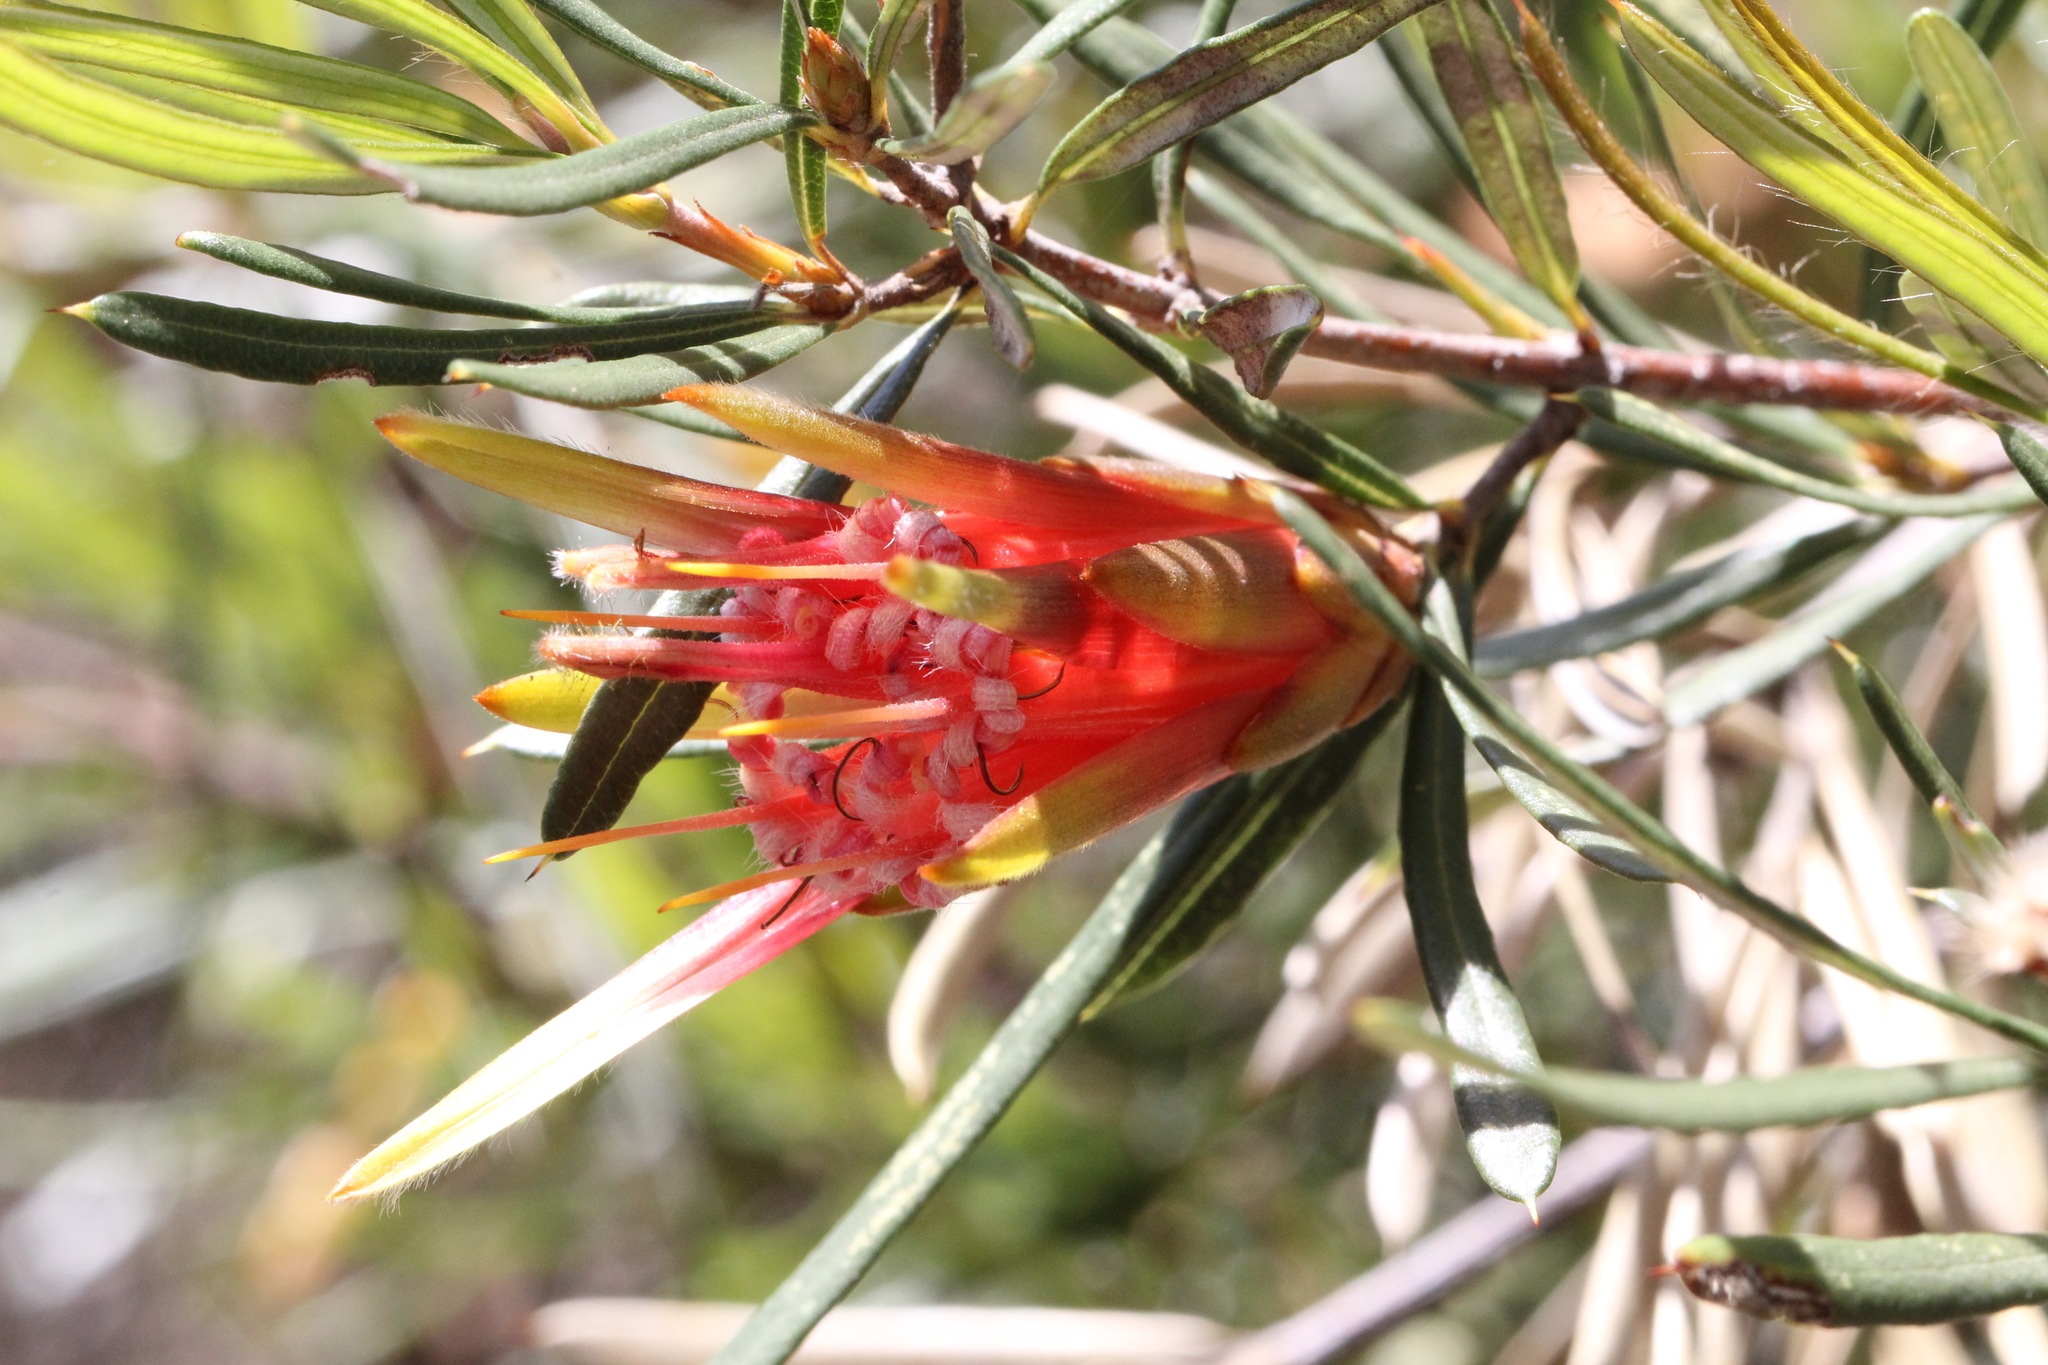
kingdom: Plantae
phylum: Tracheophyta
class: Magnoliopsida
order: Proteales
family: Proteaceae
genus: Lambertia
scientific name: Lambertia formosa
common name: Mountain-devil
